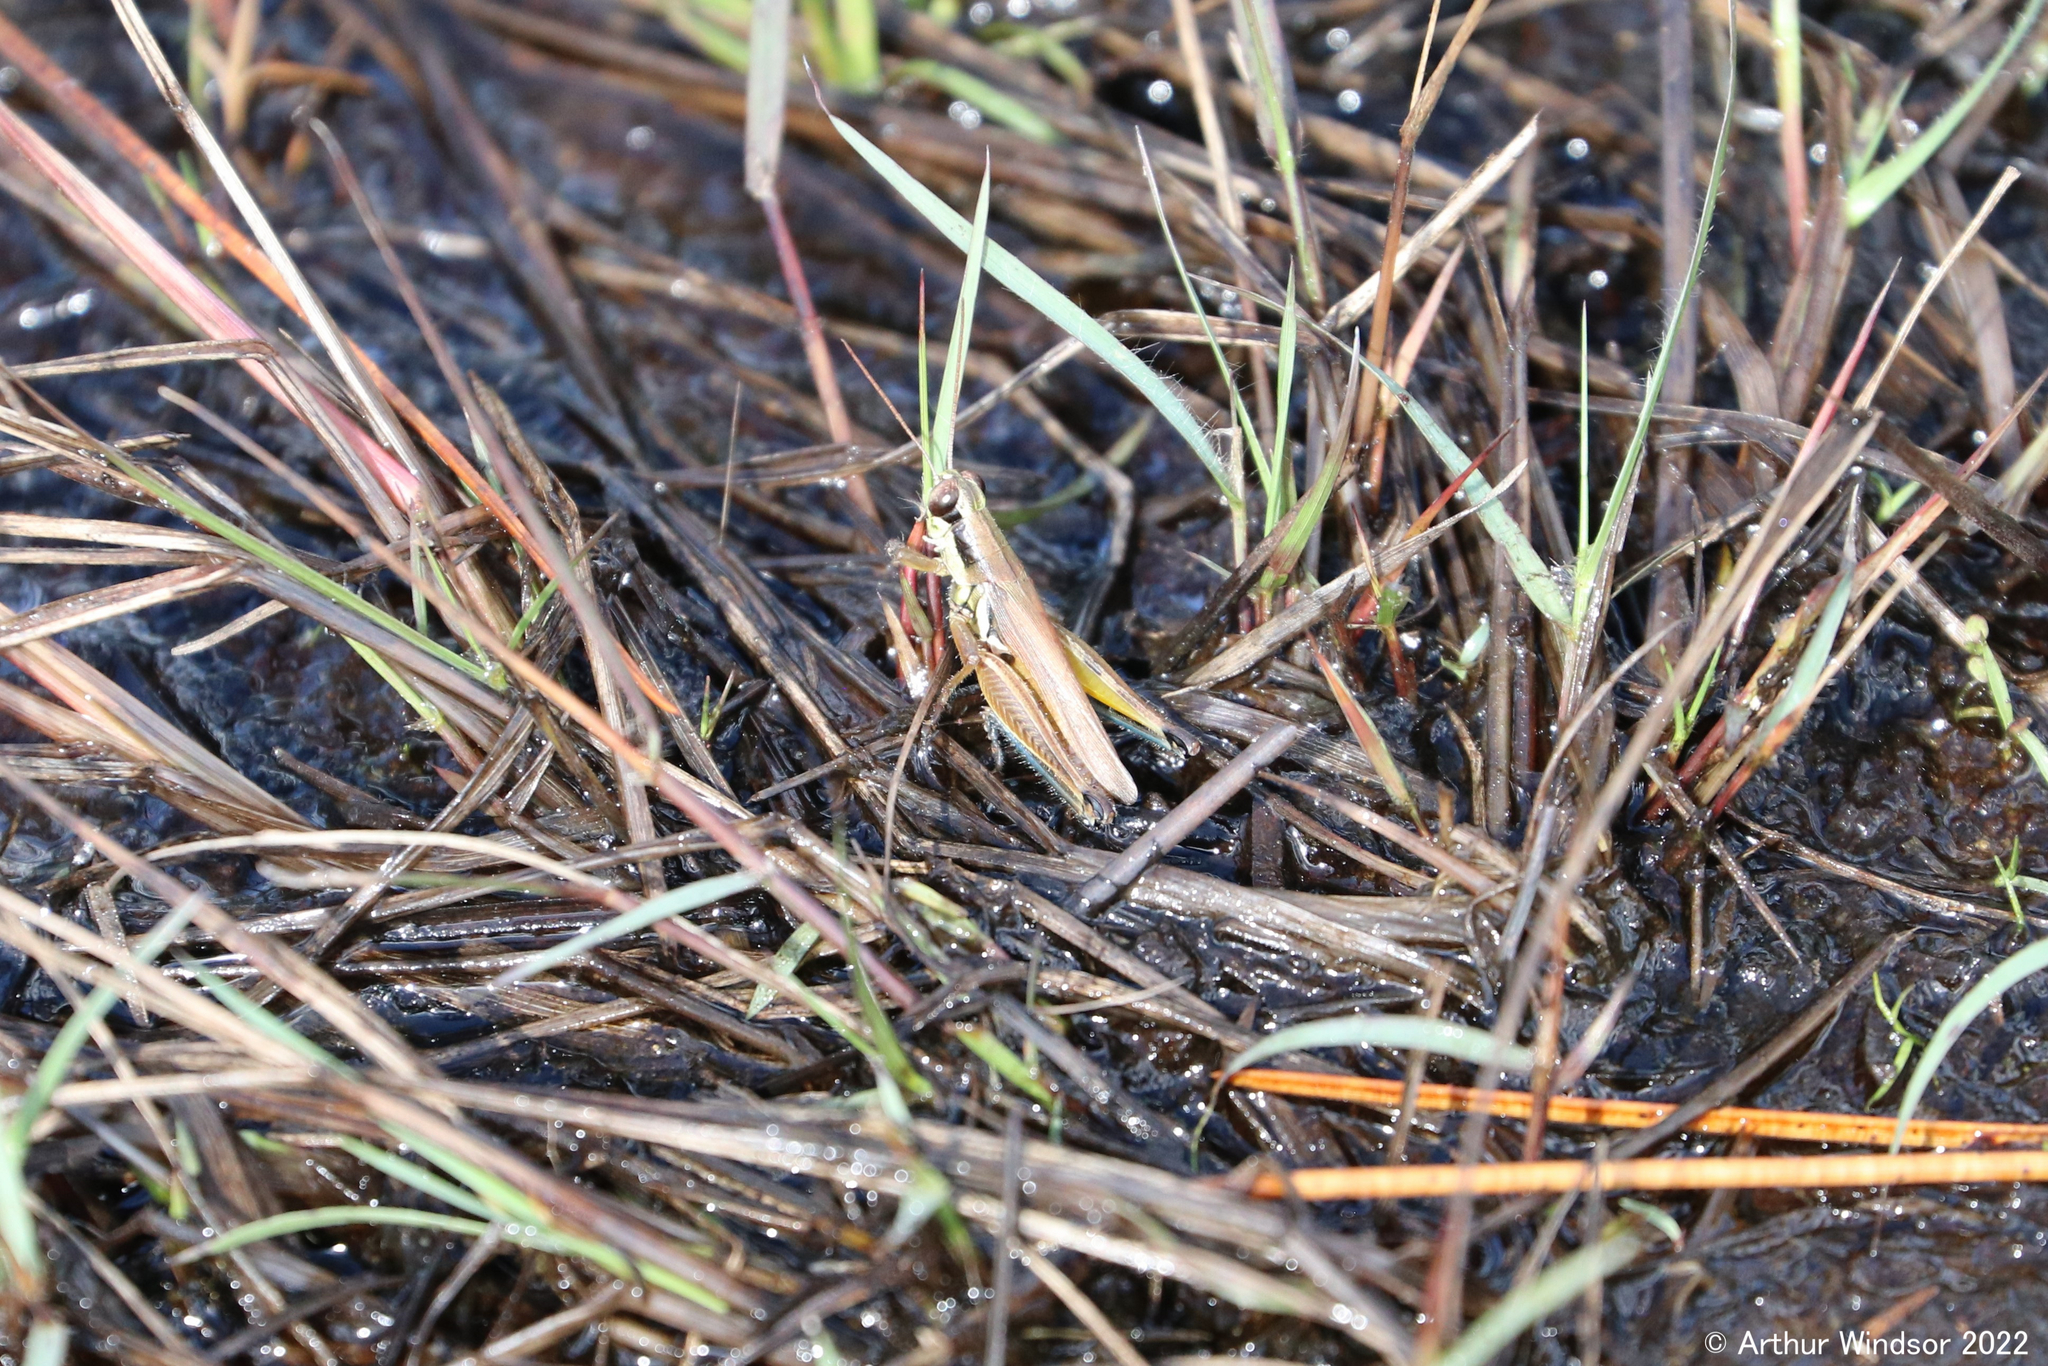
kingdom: Animalia
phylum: Arthropoda
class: Insecta
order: Orthoptera
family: Acrididae
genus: Paroxya
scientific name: Paroxya atlantica
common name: Atlantic grasshopper
